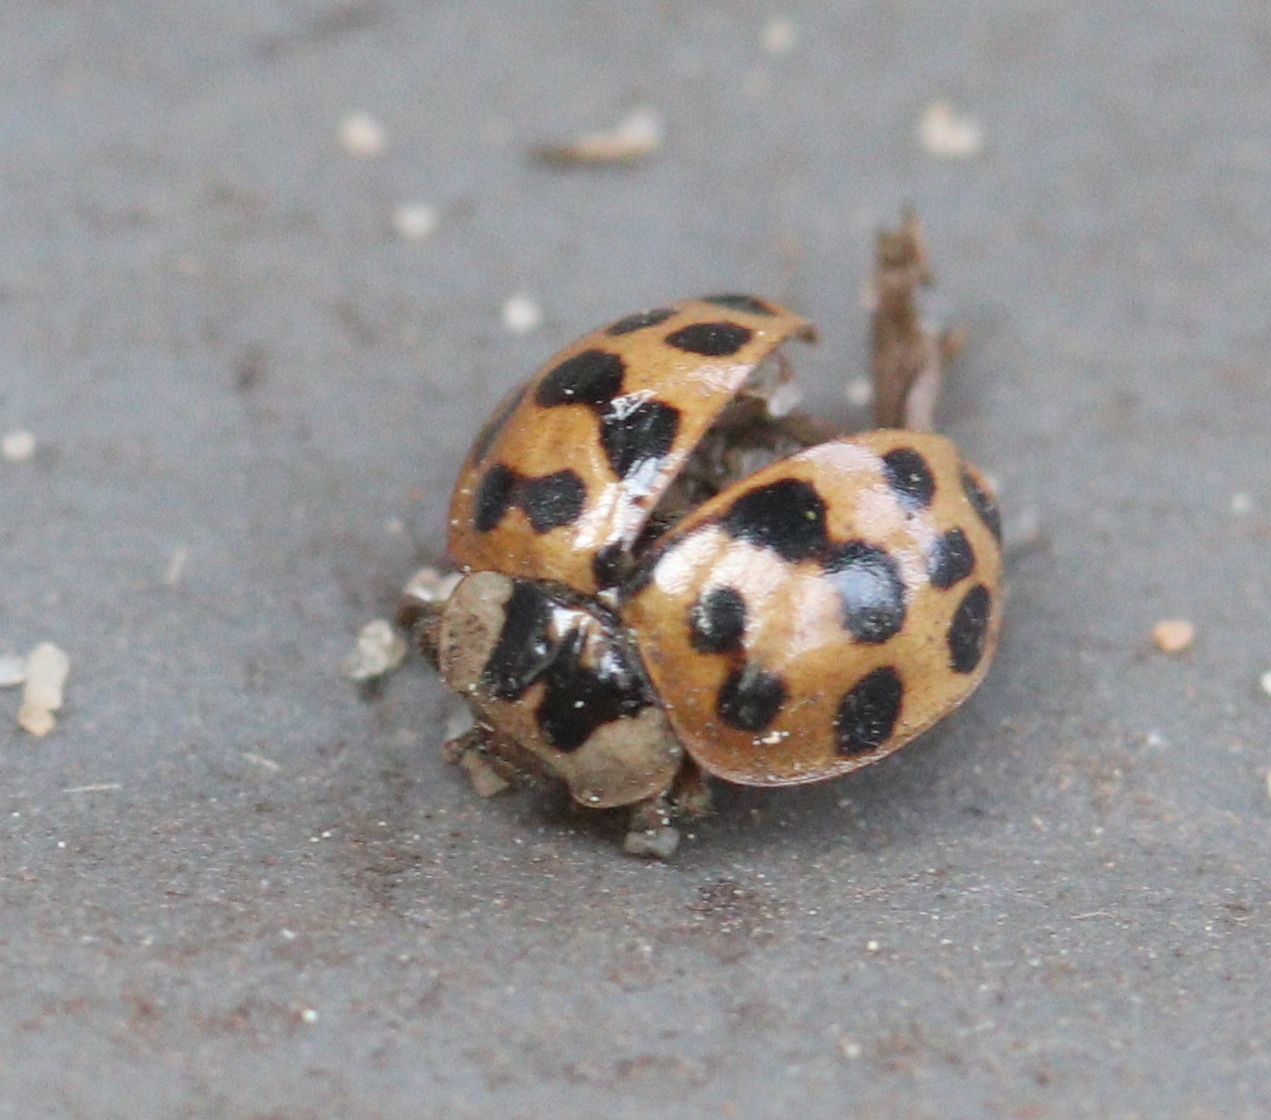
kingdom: Animalia
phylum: Arthropoda
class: Insecta
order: Coleoptera
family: Coccinellidae
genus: Harmonia
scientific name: Harmonia axyridis
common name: Harlequin ladybird
